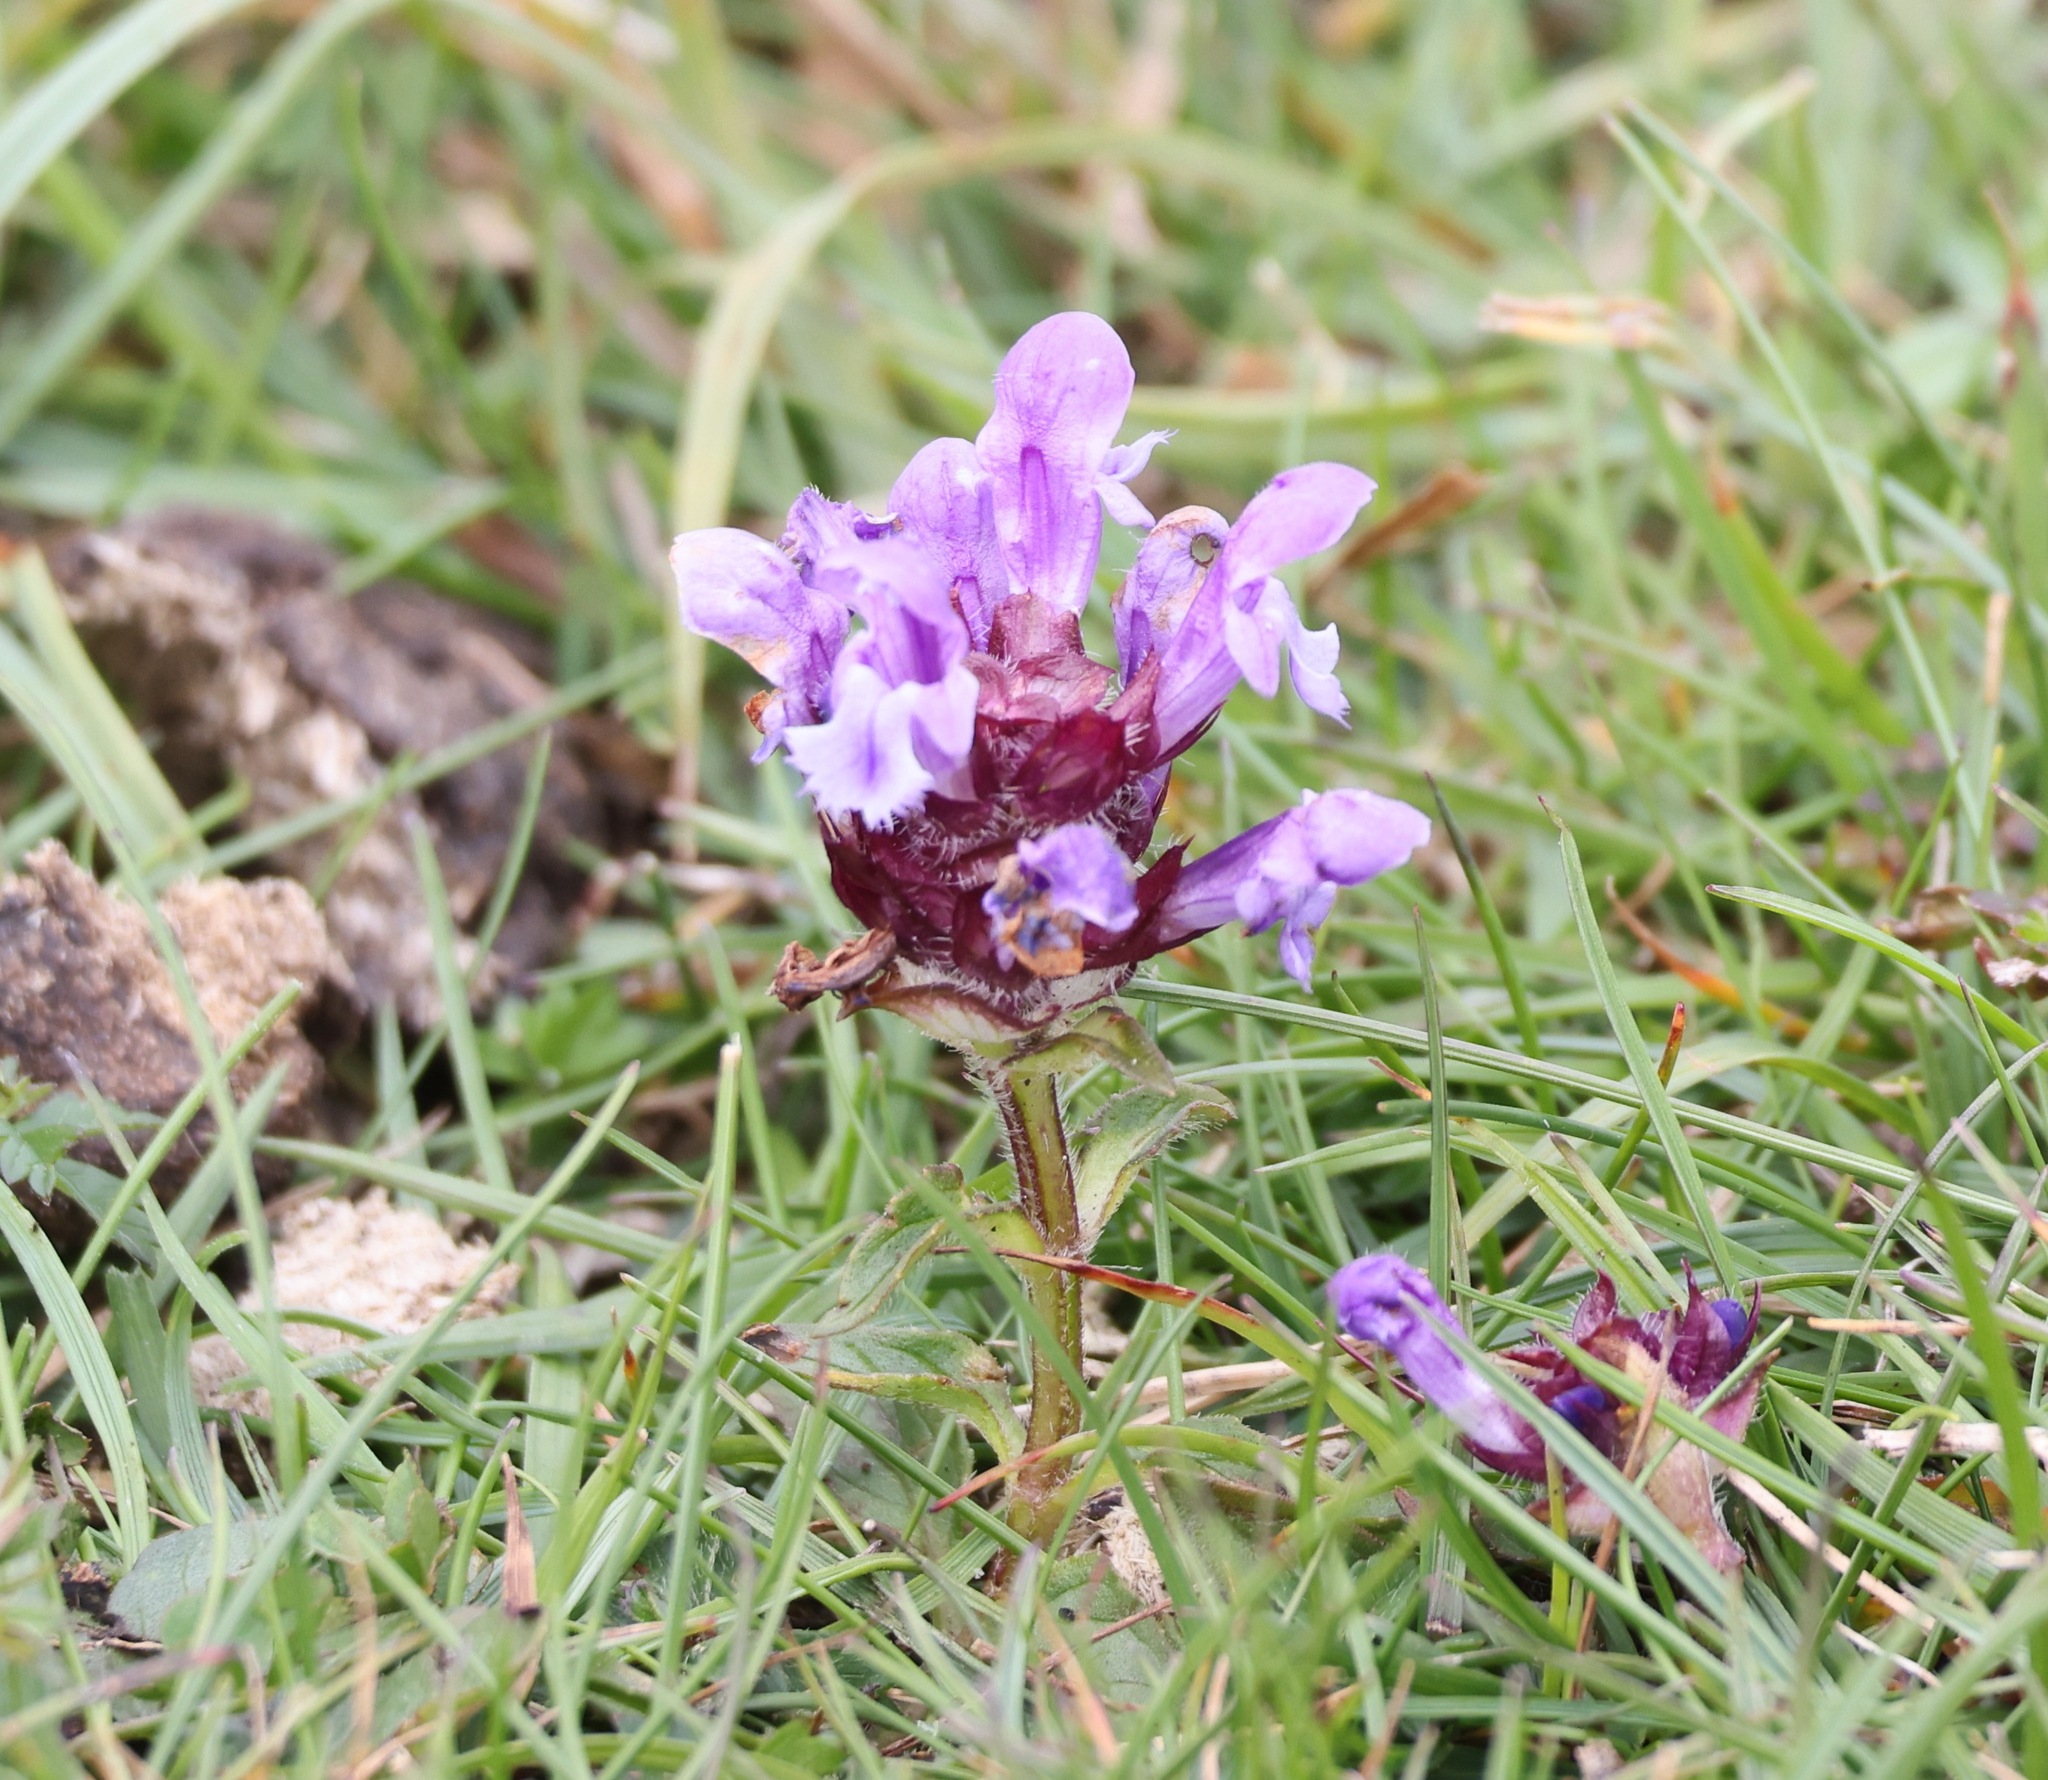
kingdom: Plantae
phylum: Tracheophyta
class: Magnoliopsida
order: Lamiales
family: Lamiaceae
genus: Prunella
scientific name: Prunella vulgaris
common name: Heal-all
